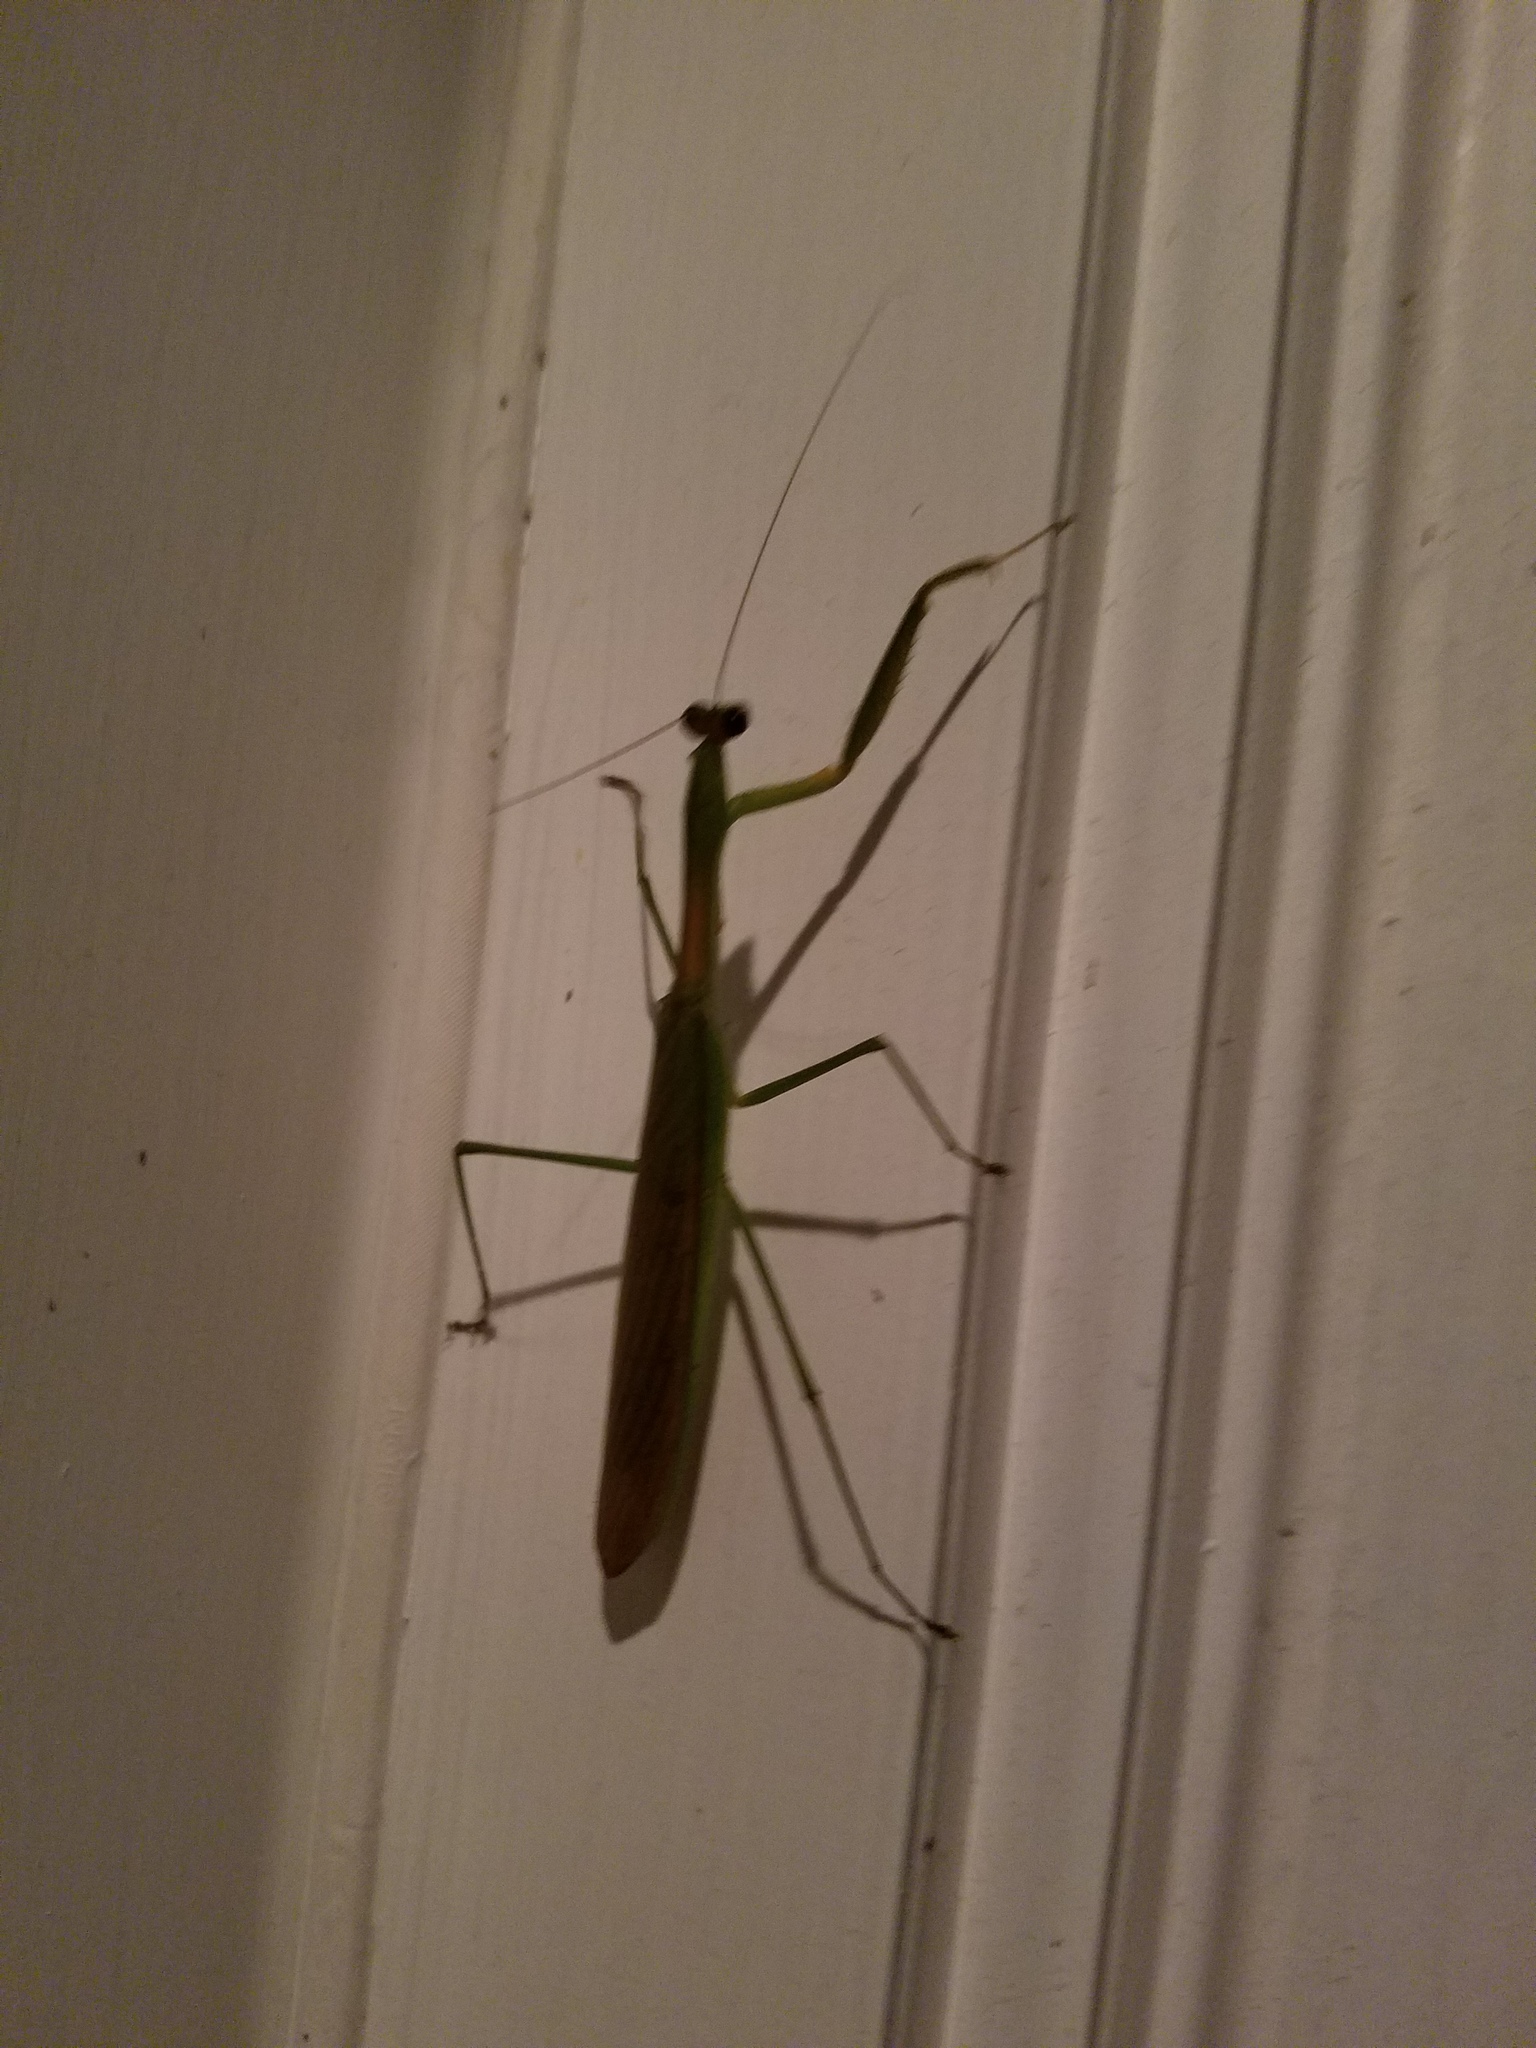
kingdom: Animalia
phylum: Arthropoda
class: Insecta
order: Mantodea
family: Mantidae
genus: Tenodera
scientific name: Tenodera sinensis
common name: Chinese mantis
